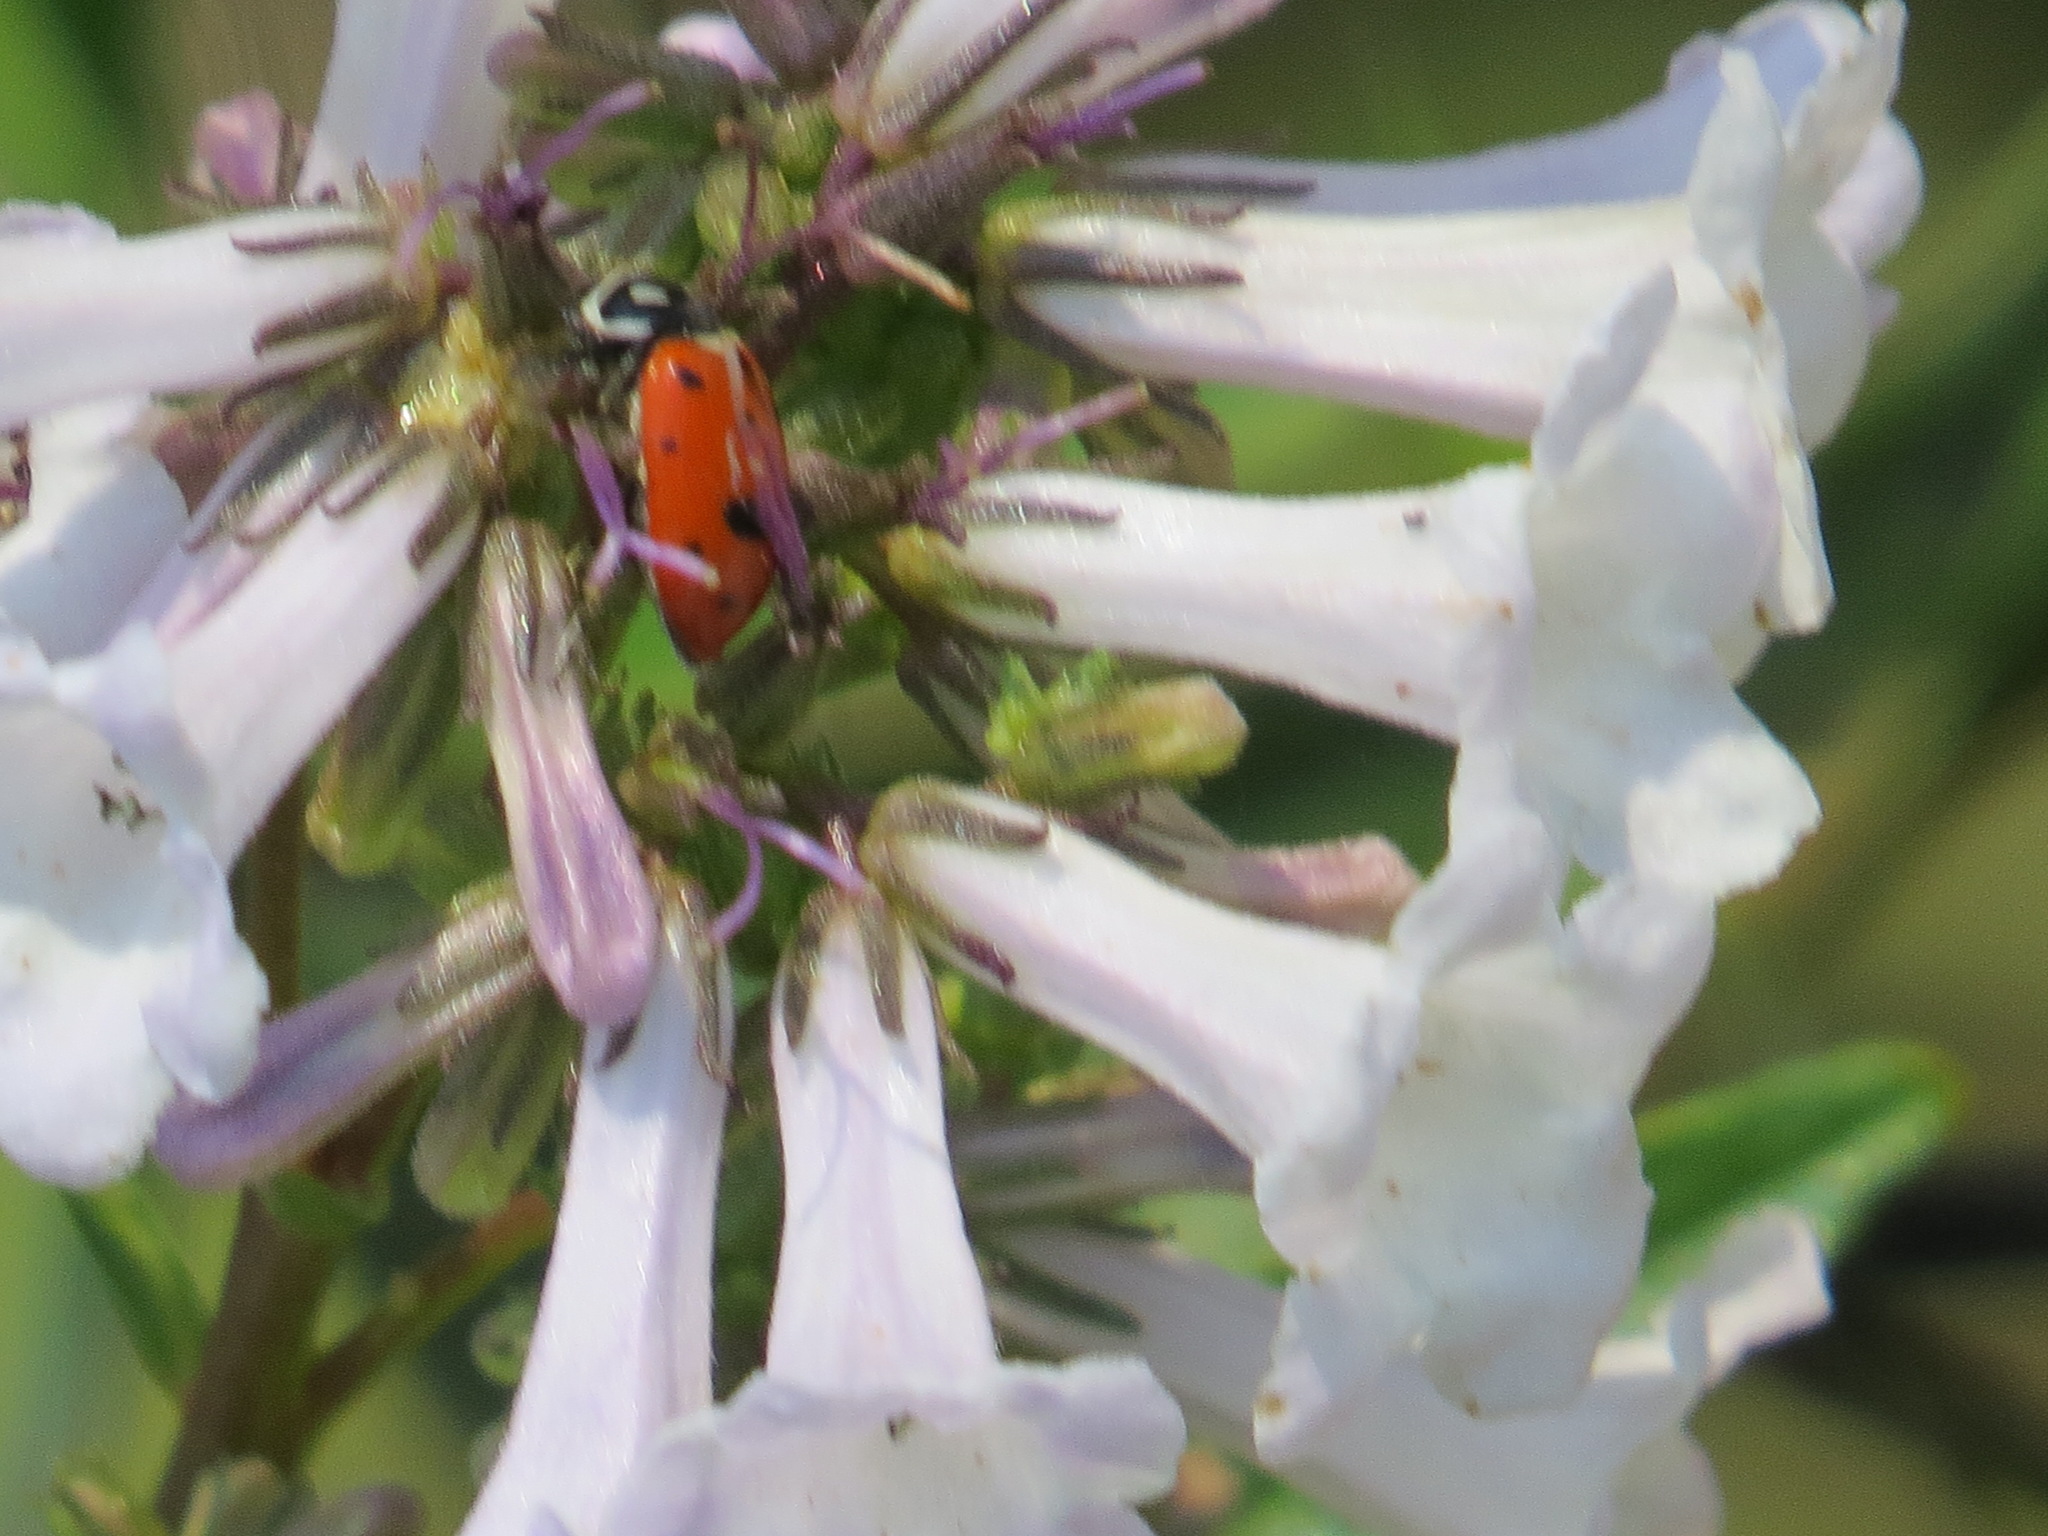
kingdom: Animalia
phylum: Arthropoda
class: Insecta
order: Coleoptera
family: Coccinellidae
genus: Hippodamia
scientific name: Hippodamia convergens
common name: Convergent lady beetle
